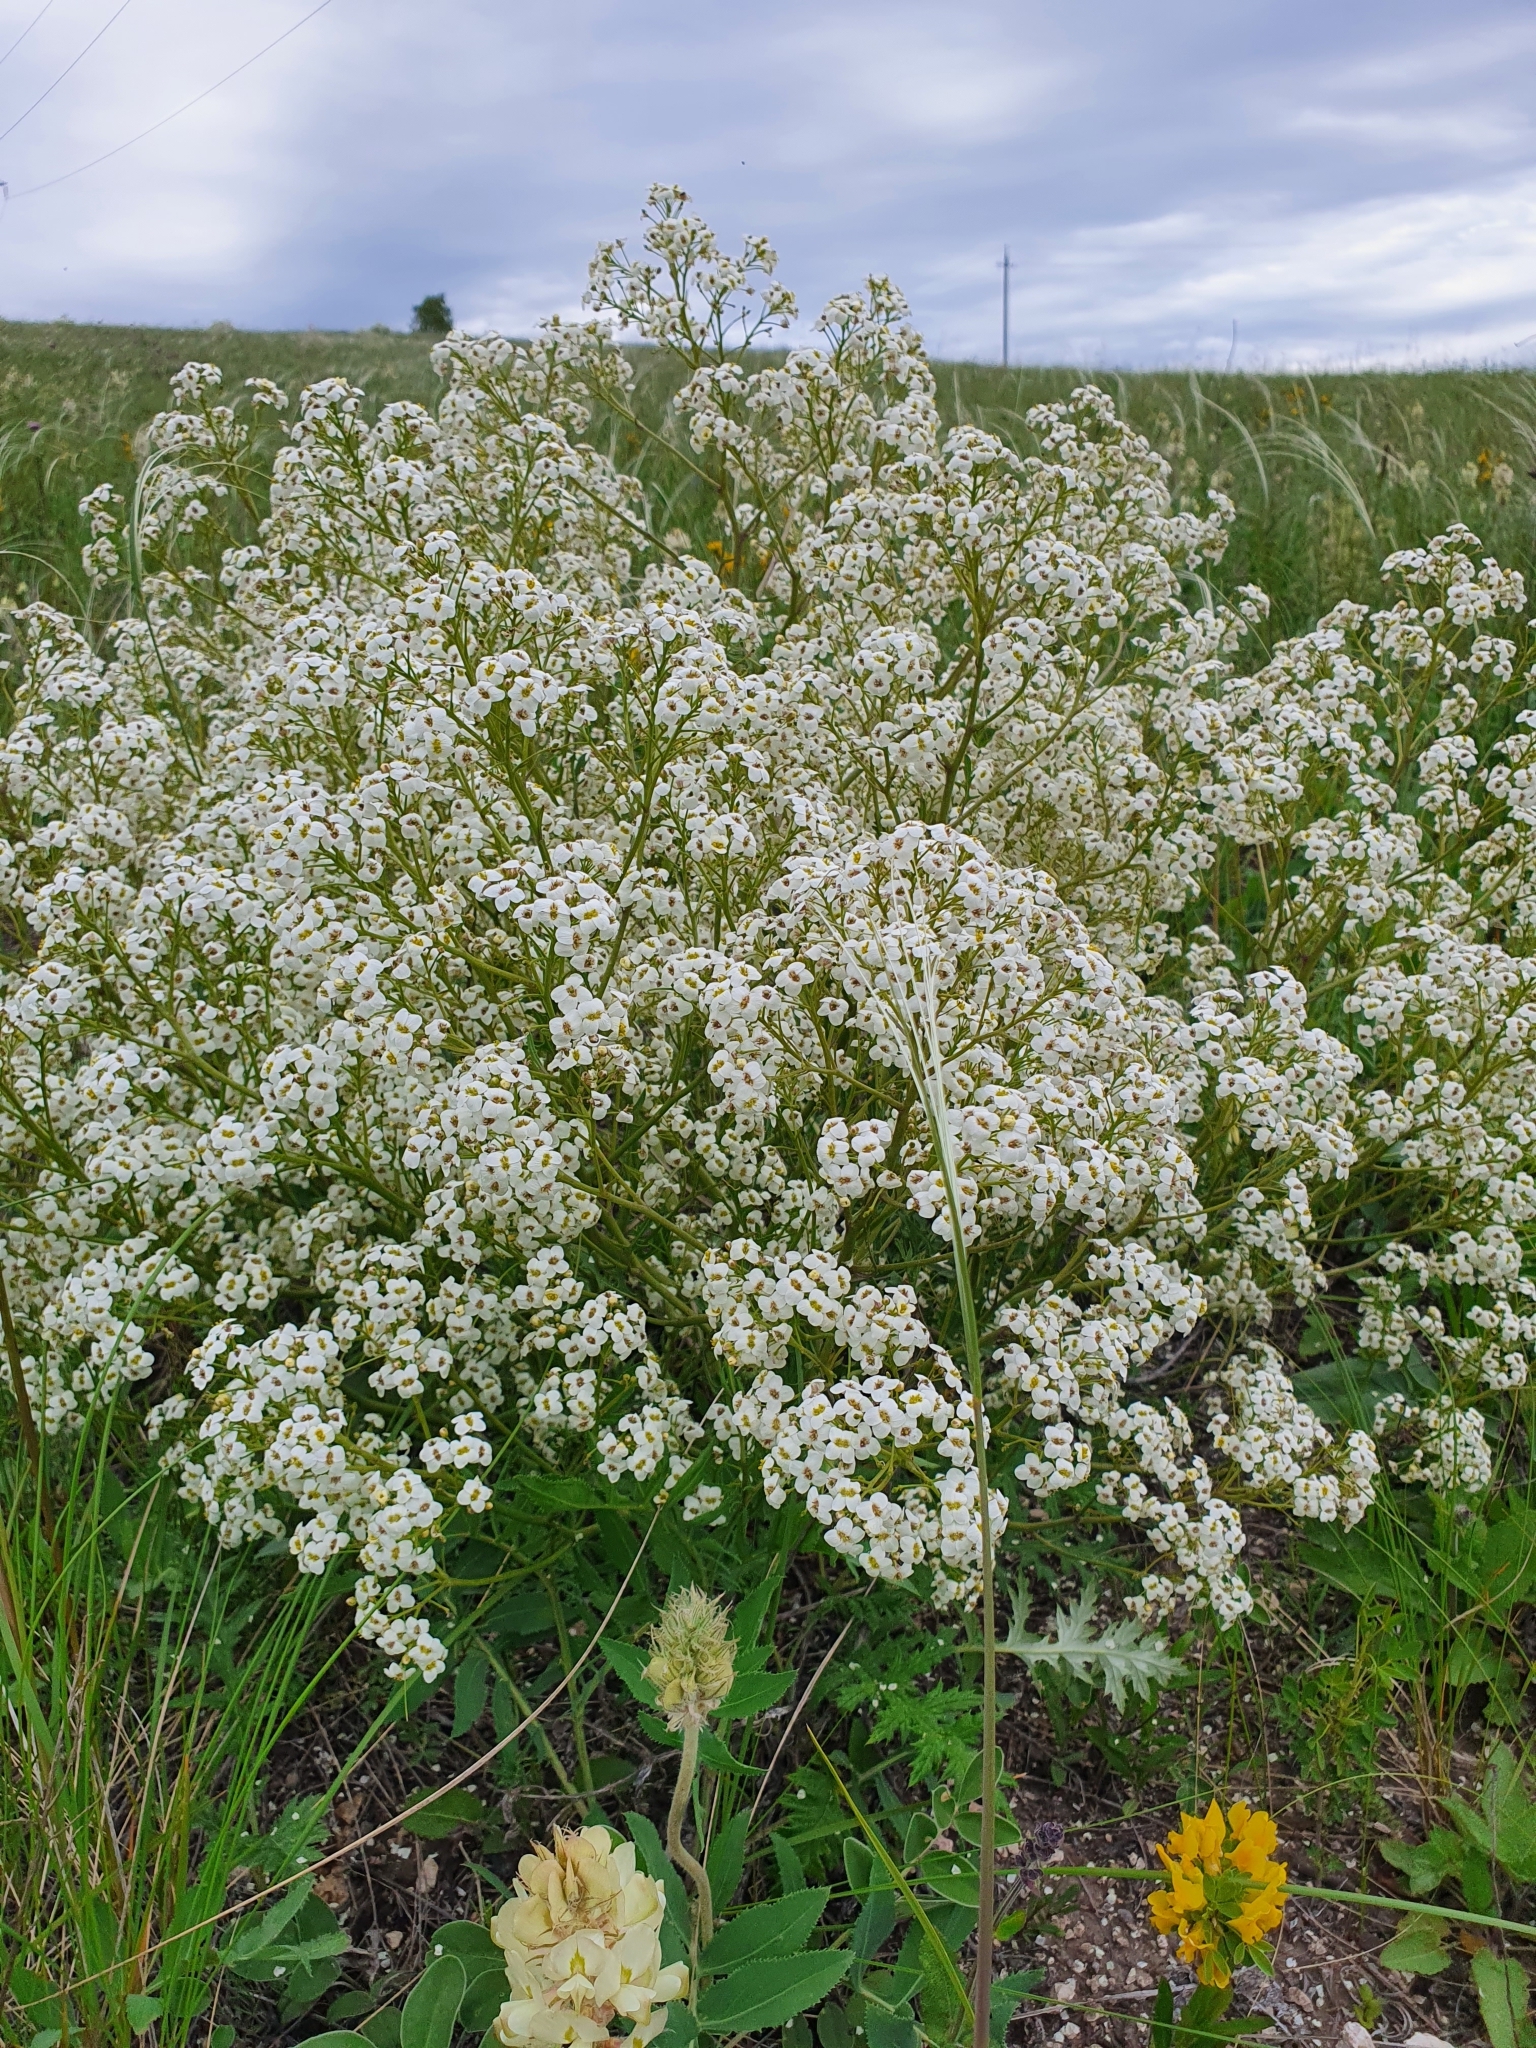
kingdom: Plantae
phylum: Tracheophyta
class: Magnoliopsida
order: Brassicales
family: Brassicaceae
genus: Crambe
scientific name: Crambe tataria
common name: Tartarian breadplant
